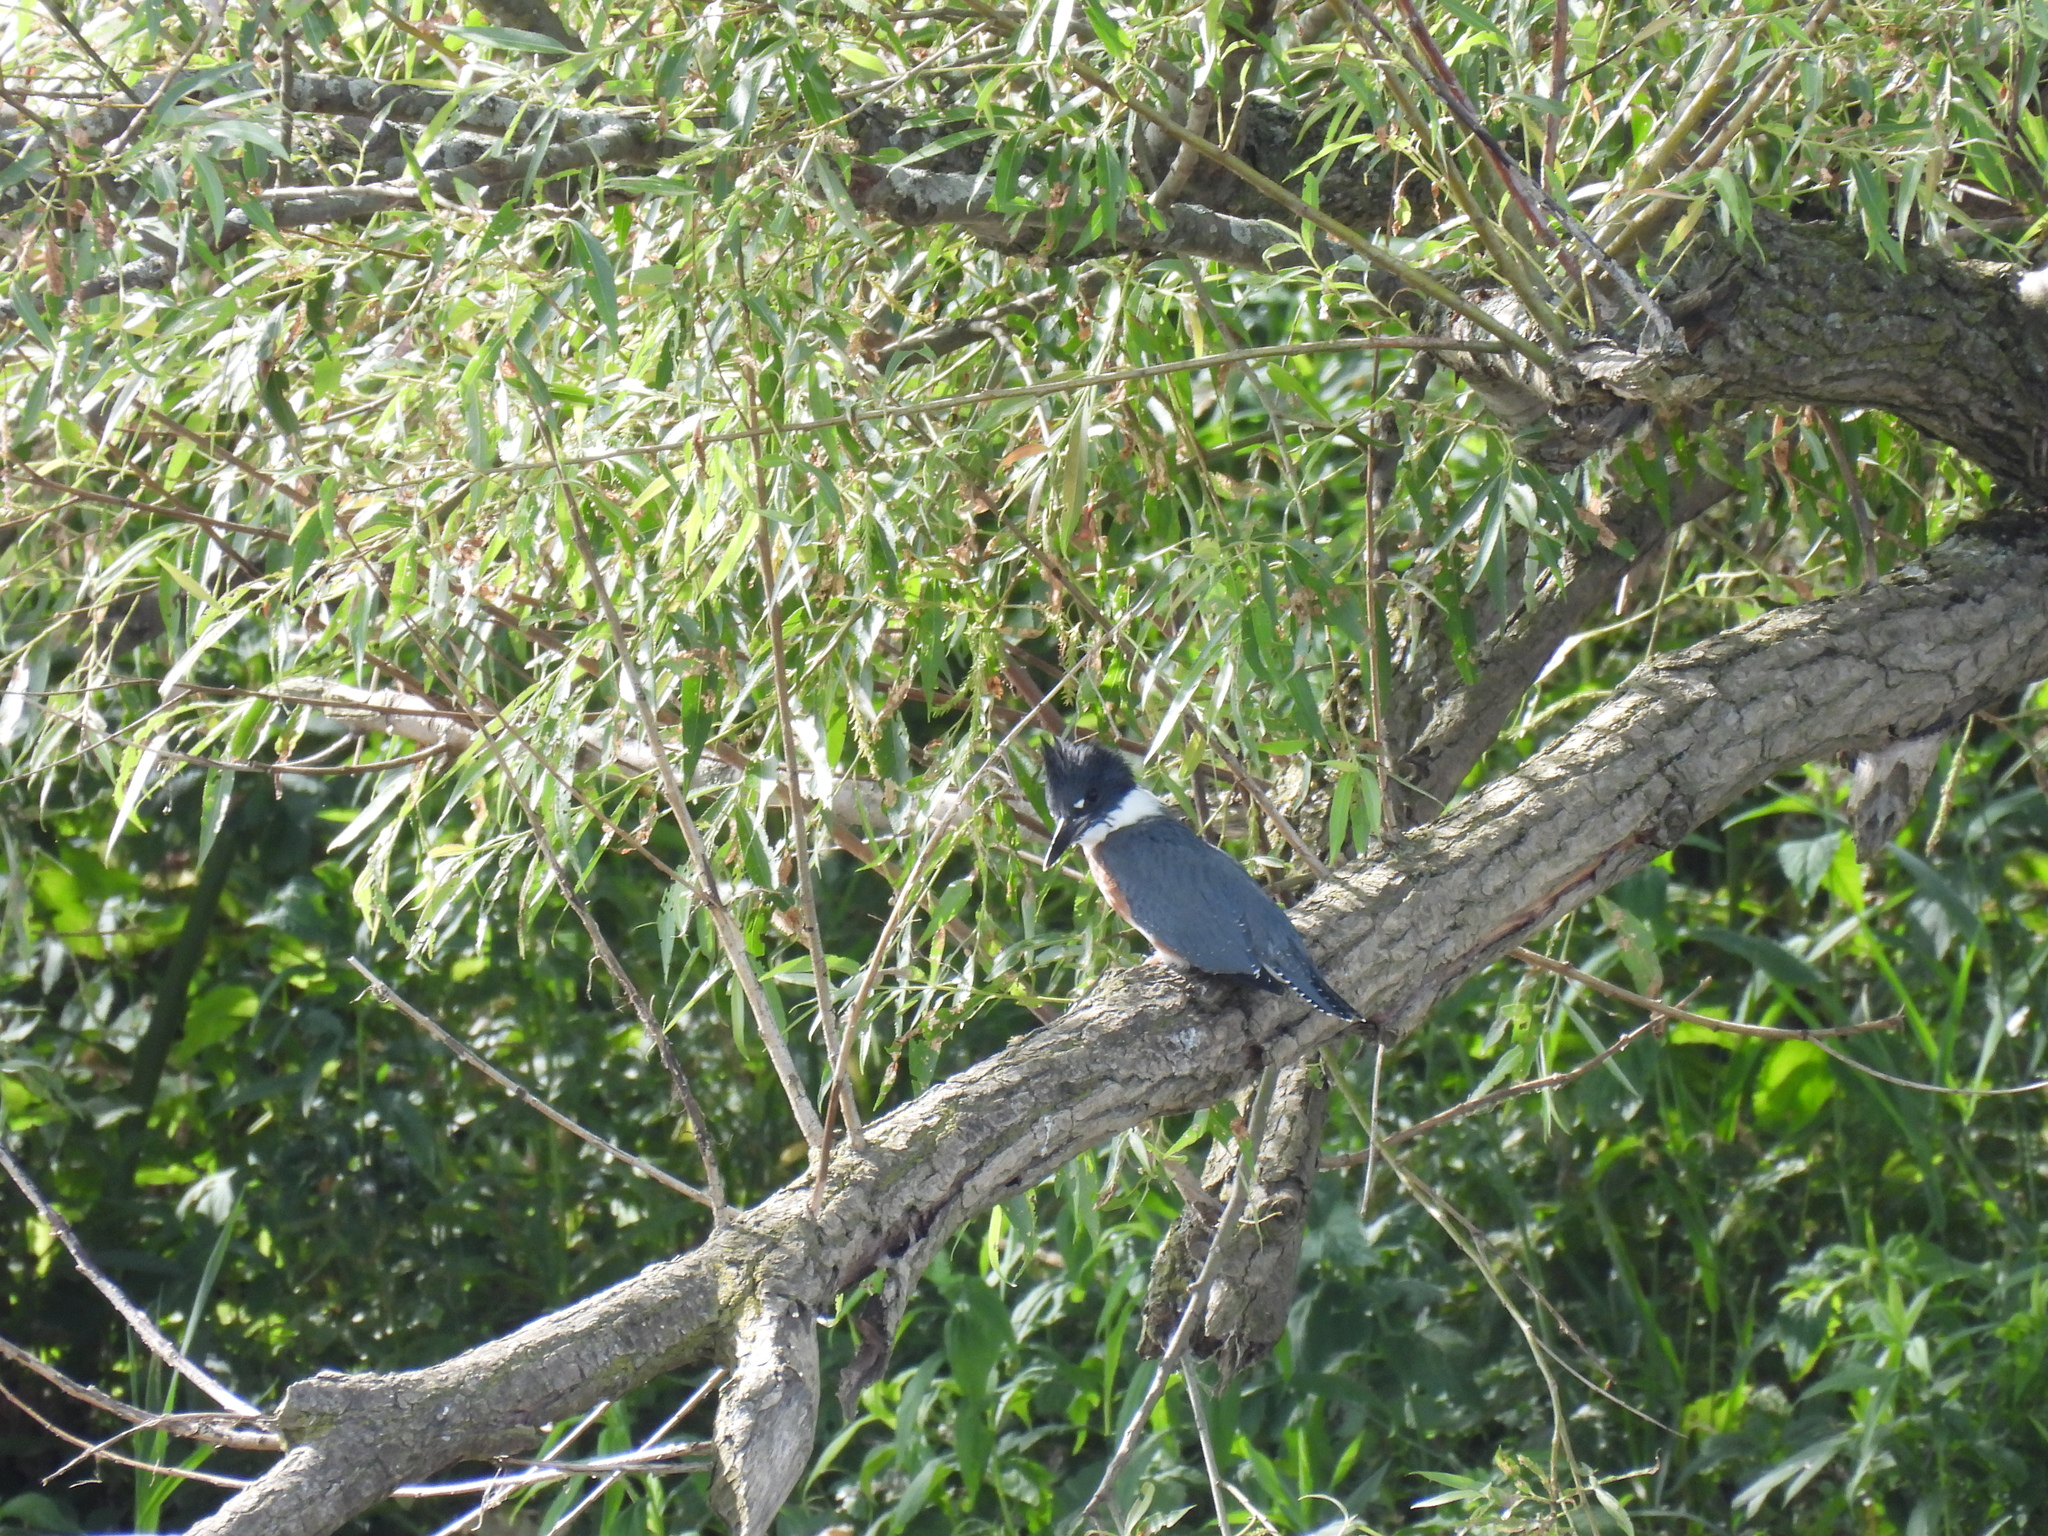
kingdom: Animalia
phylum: Chordata
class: Aves
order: Coraciiformes
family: Alcedinidae
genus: Megaceryle
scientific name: Megaceryle alcyon
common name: Belted kingfisher
